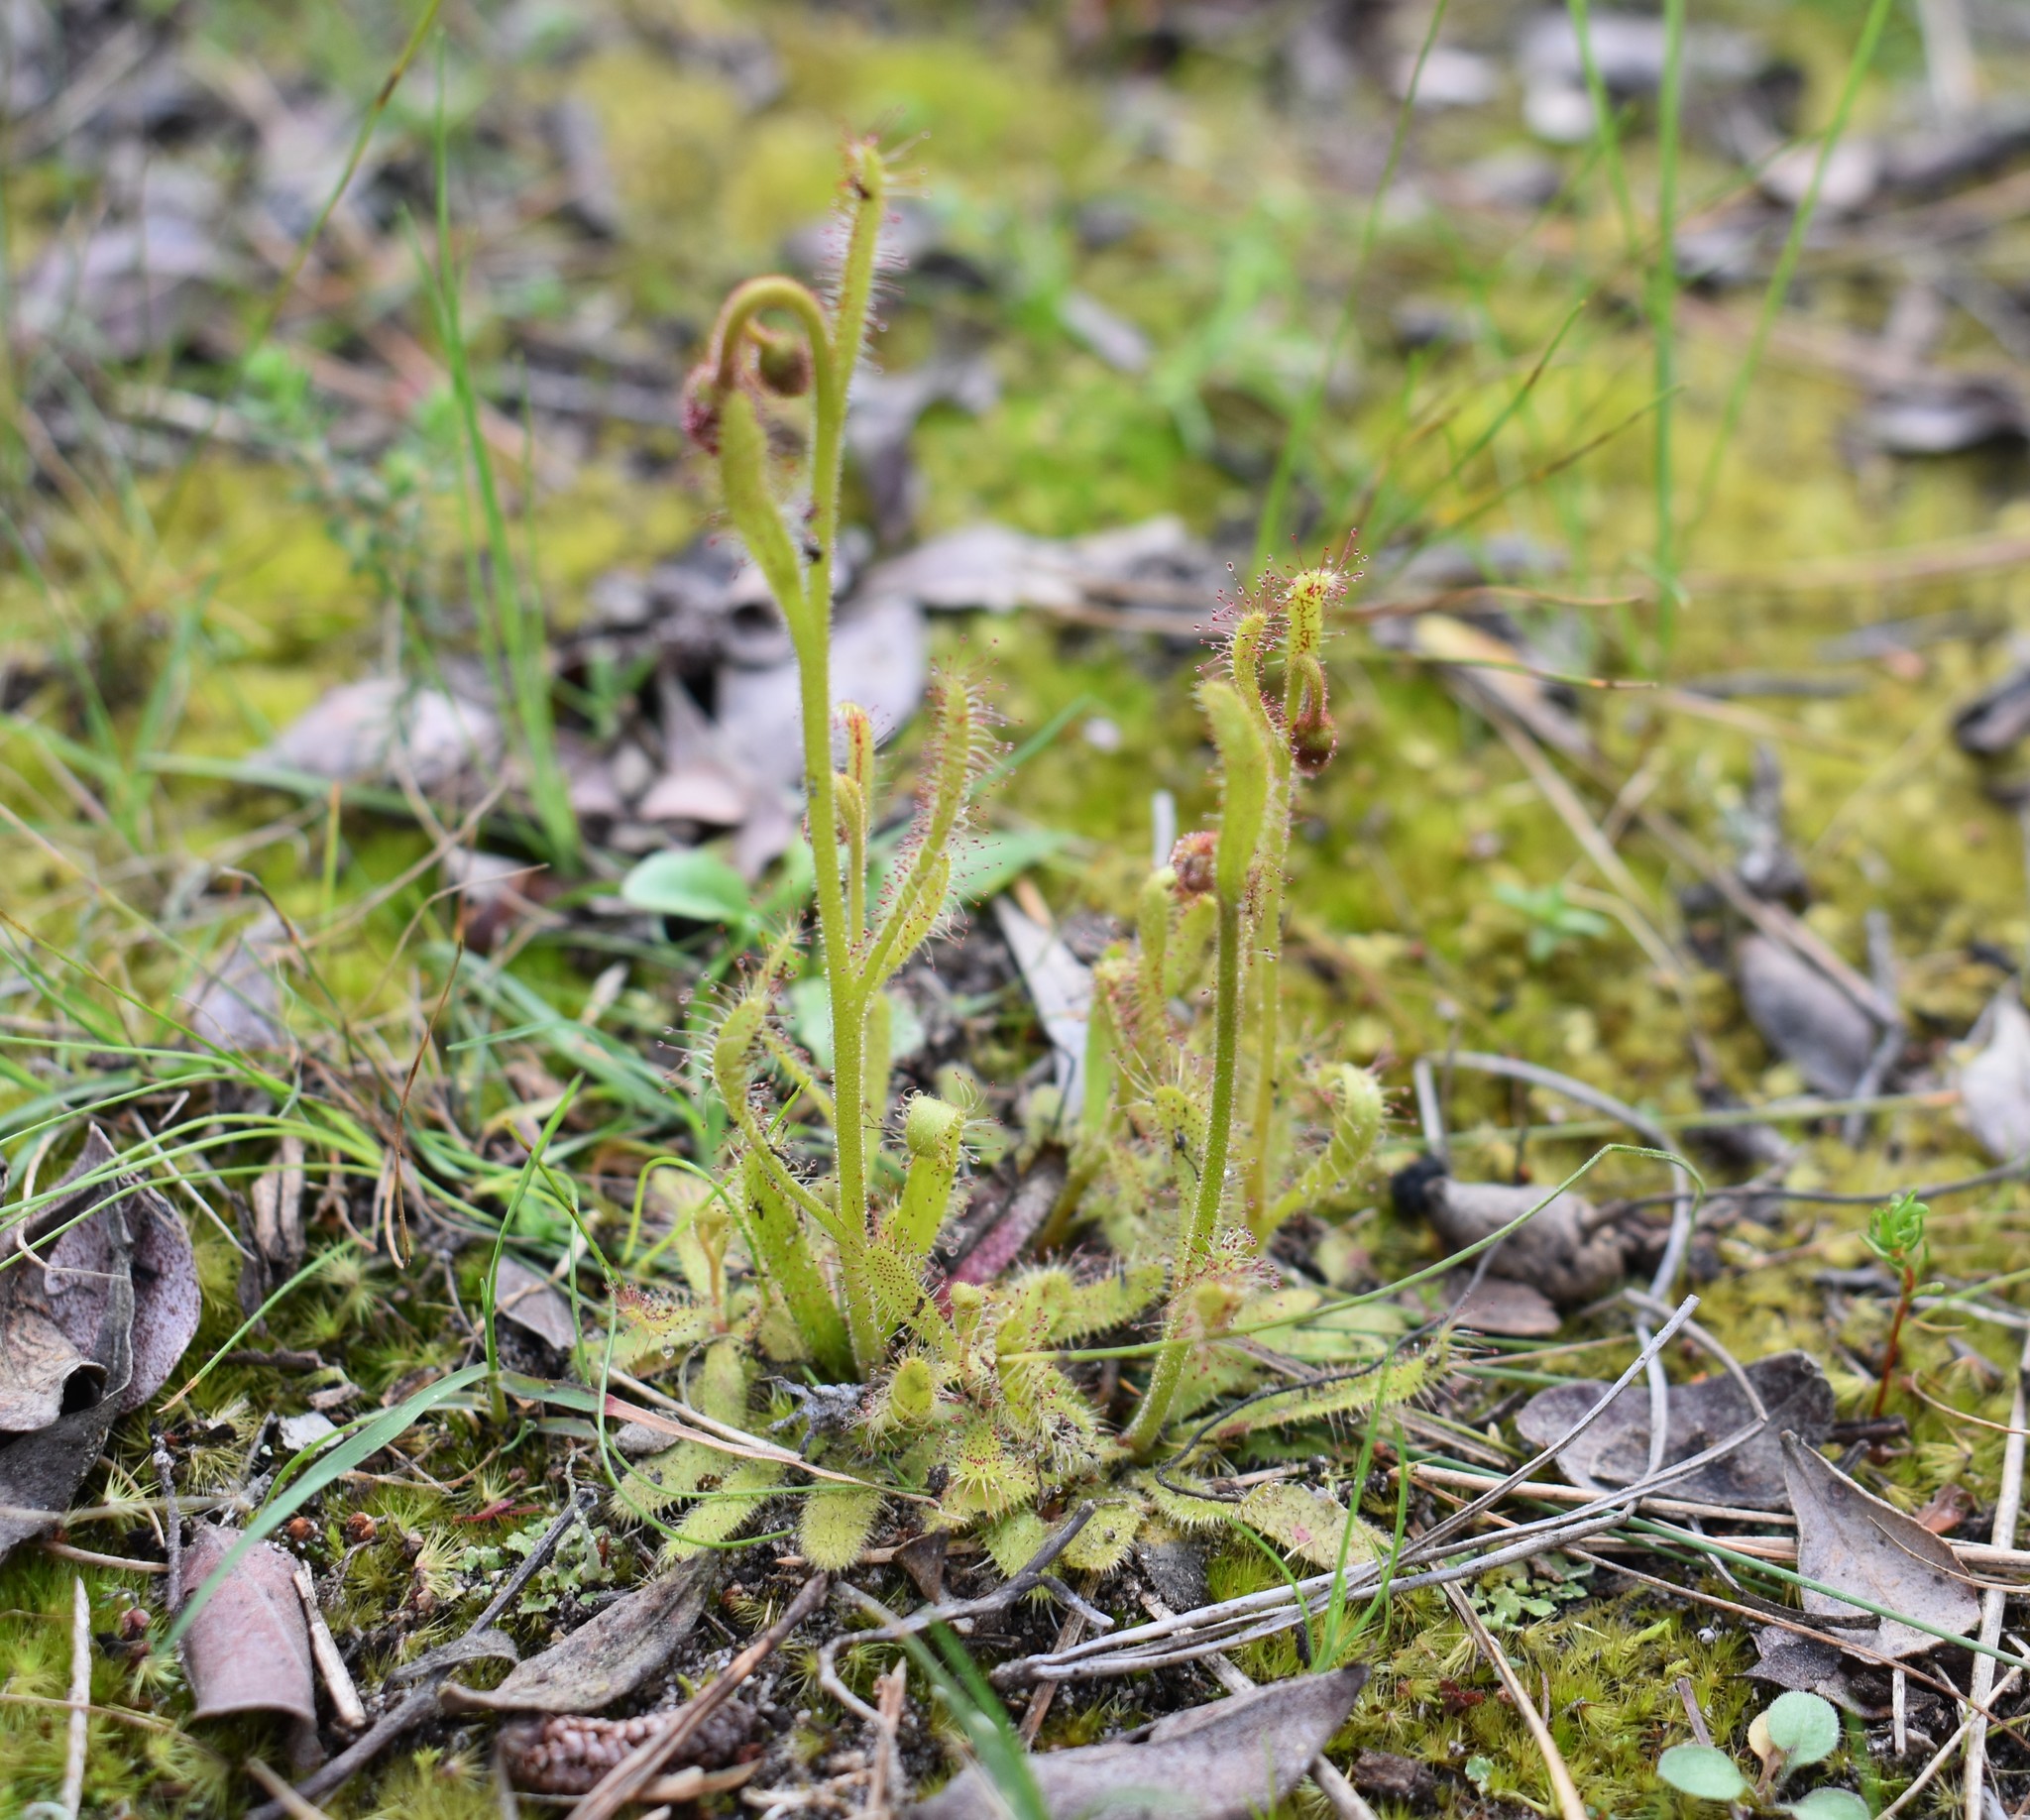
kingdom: Plantae
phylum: Tracheophyta
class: Magnoliopsida
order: Caryophyllales
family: Droseraceae
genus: Drosera
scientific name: Drosera cistiflora
